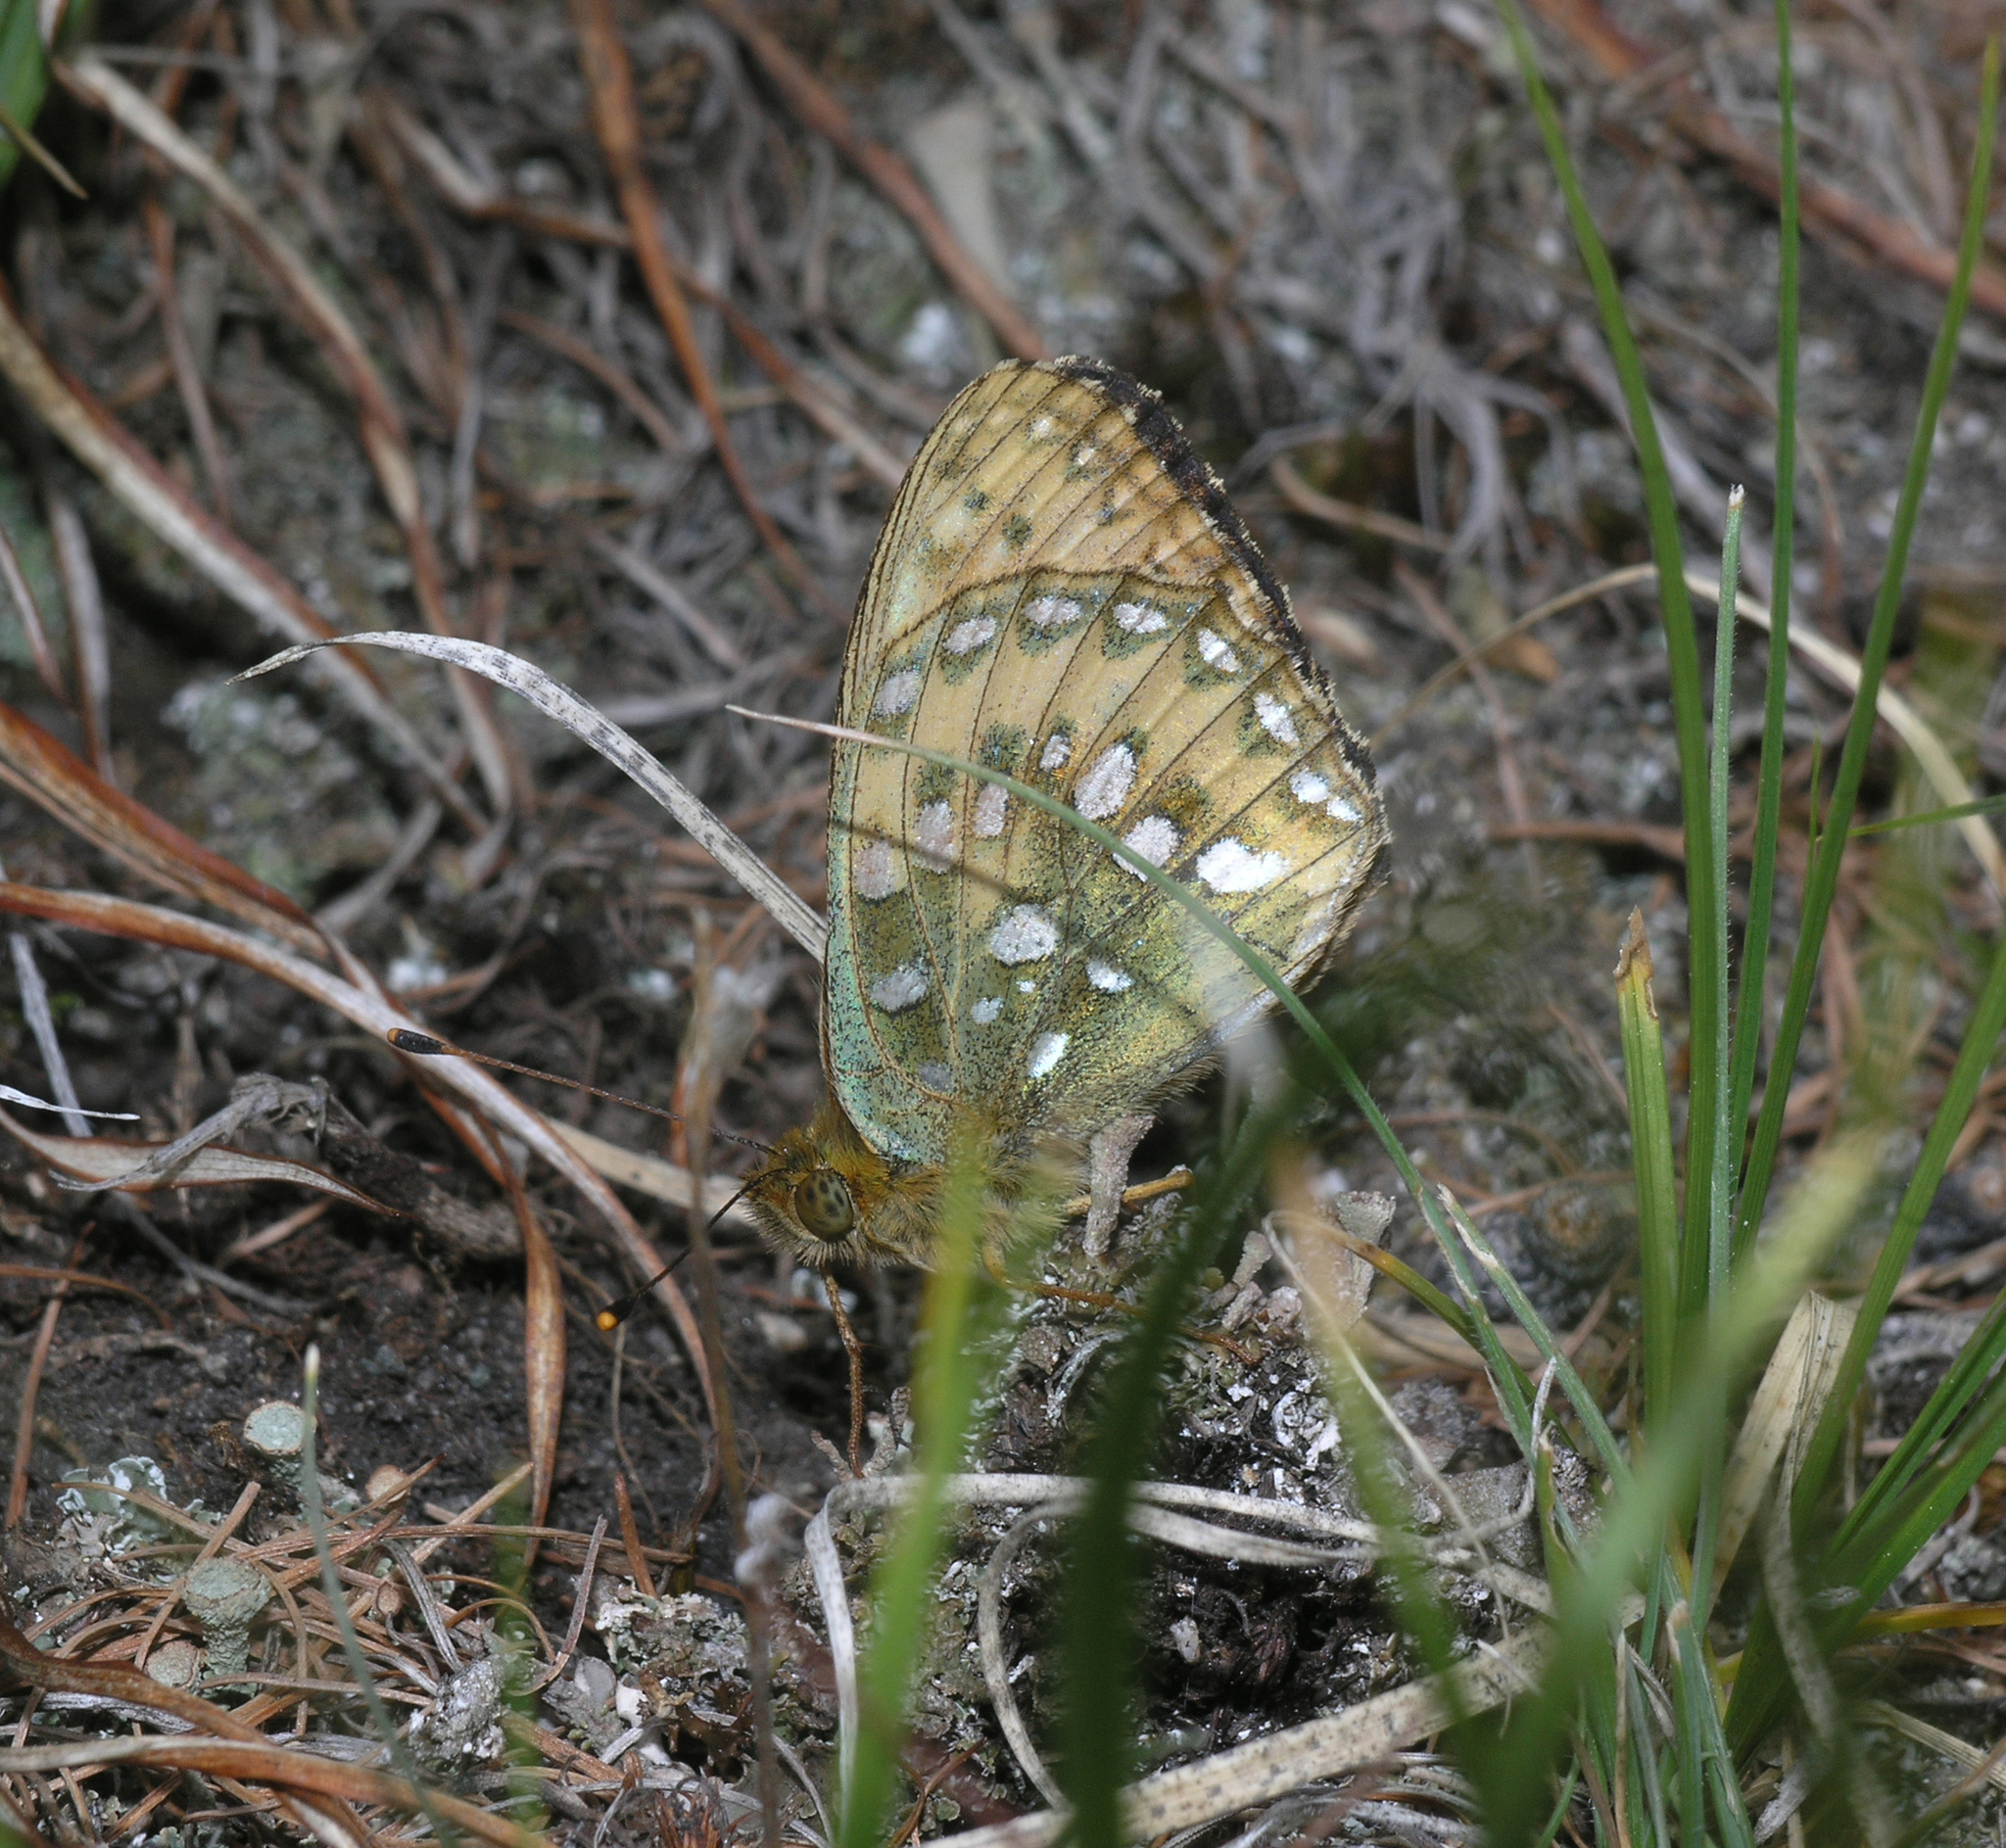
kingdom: Animalia
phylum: Arthropoda
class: Insecta
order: Lepidoptera
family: Nymphalidae
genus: Speyeria
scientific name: Speyeria aglaja
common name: Dark green fritillary
